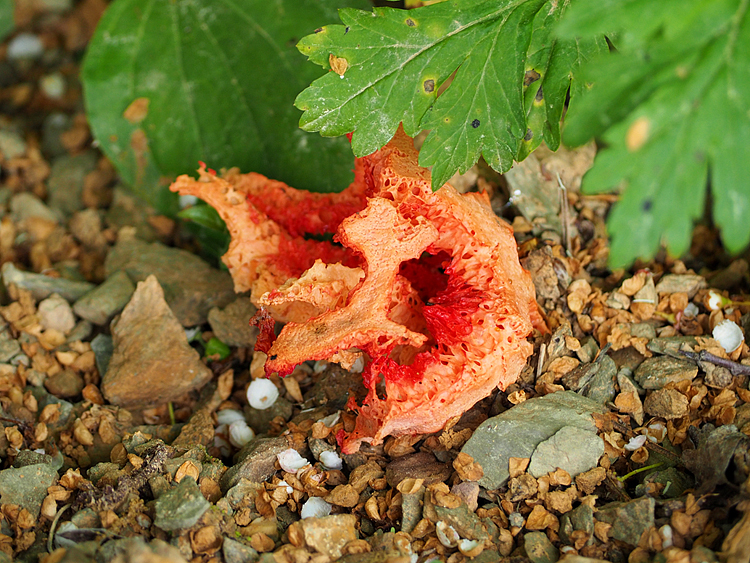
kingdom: Fungi
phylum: Basidiomycota
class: Agaricomycetes
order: Phallales
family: Phallaceae
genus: Clathrus
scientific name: Clathrus ruber
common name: Red cage
